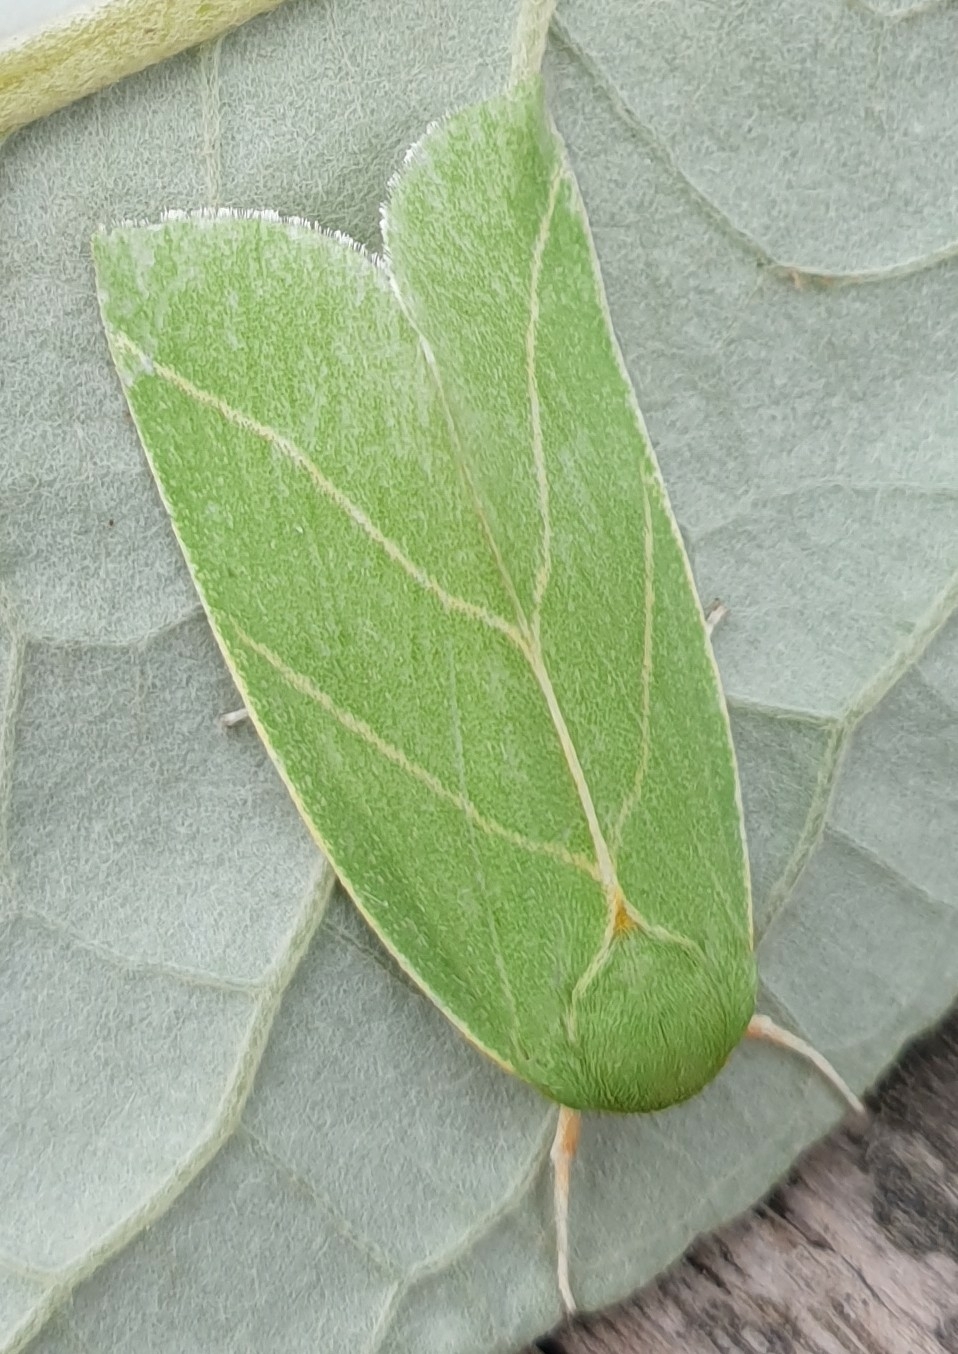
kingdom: Animalia
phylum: Arthropoda
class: Insecta
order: Lepidoptera
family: Nolidae
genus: Bena
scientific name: Bena bicolorana
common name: Scarce silver-lines
